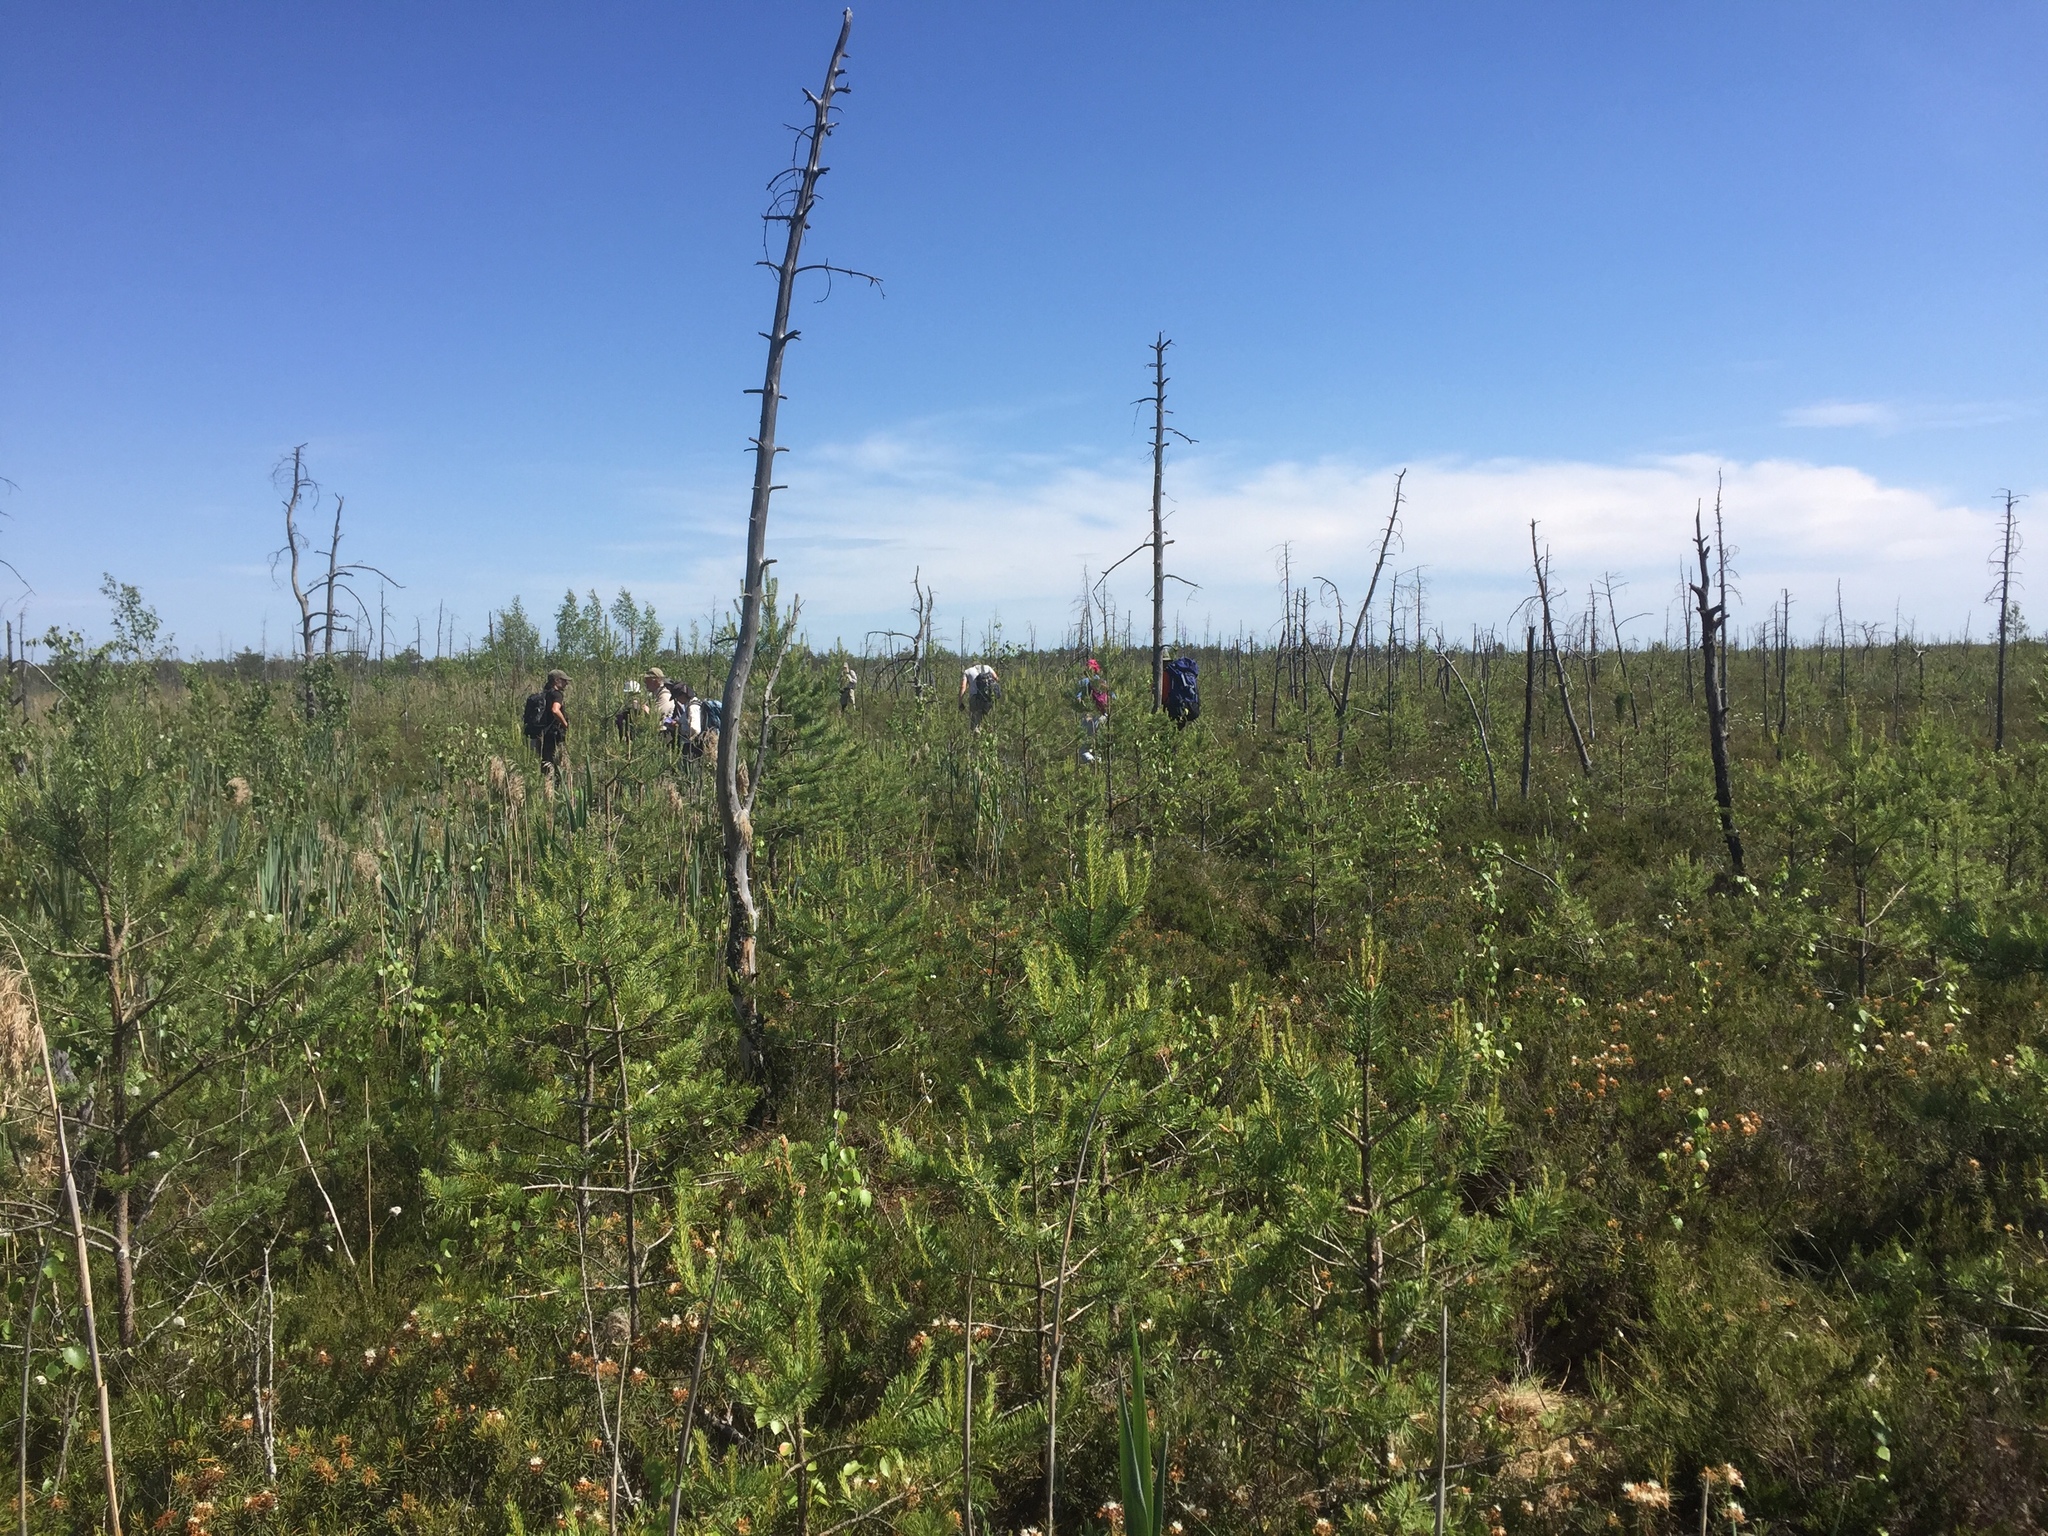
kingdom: Plantae
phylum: Tracheophyta
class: Magnoliopsida
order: Ericales
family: Ericaceae
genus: Rhododendron
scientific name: Rhododendron tomentosum
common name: Marsh labrador tea
